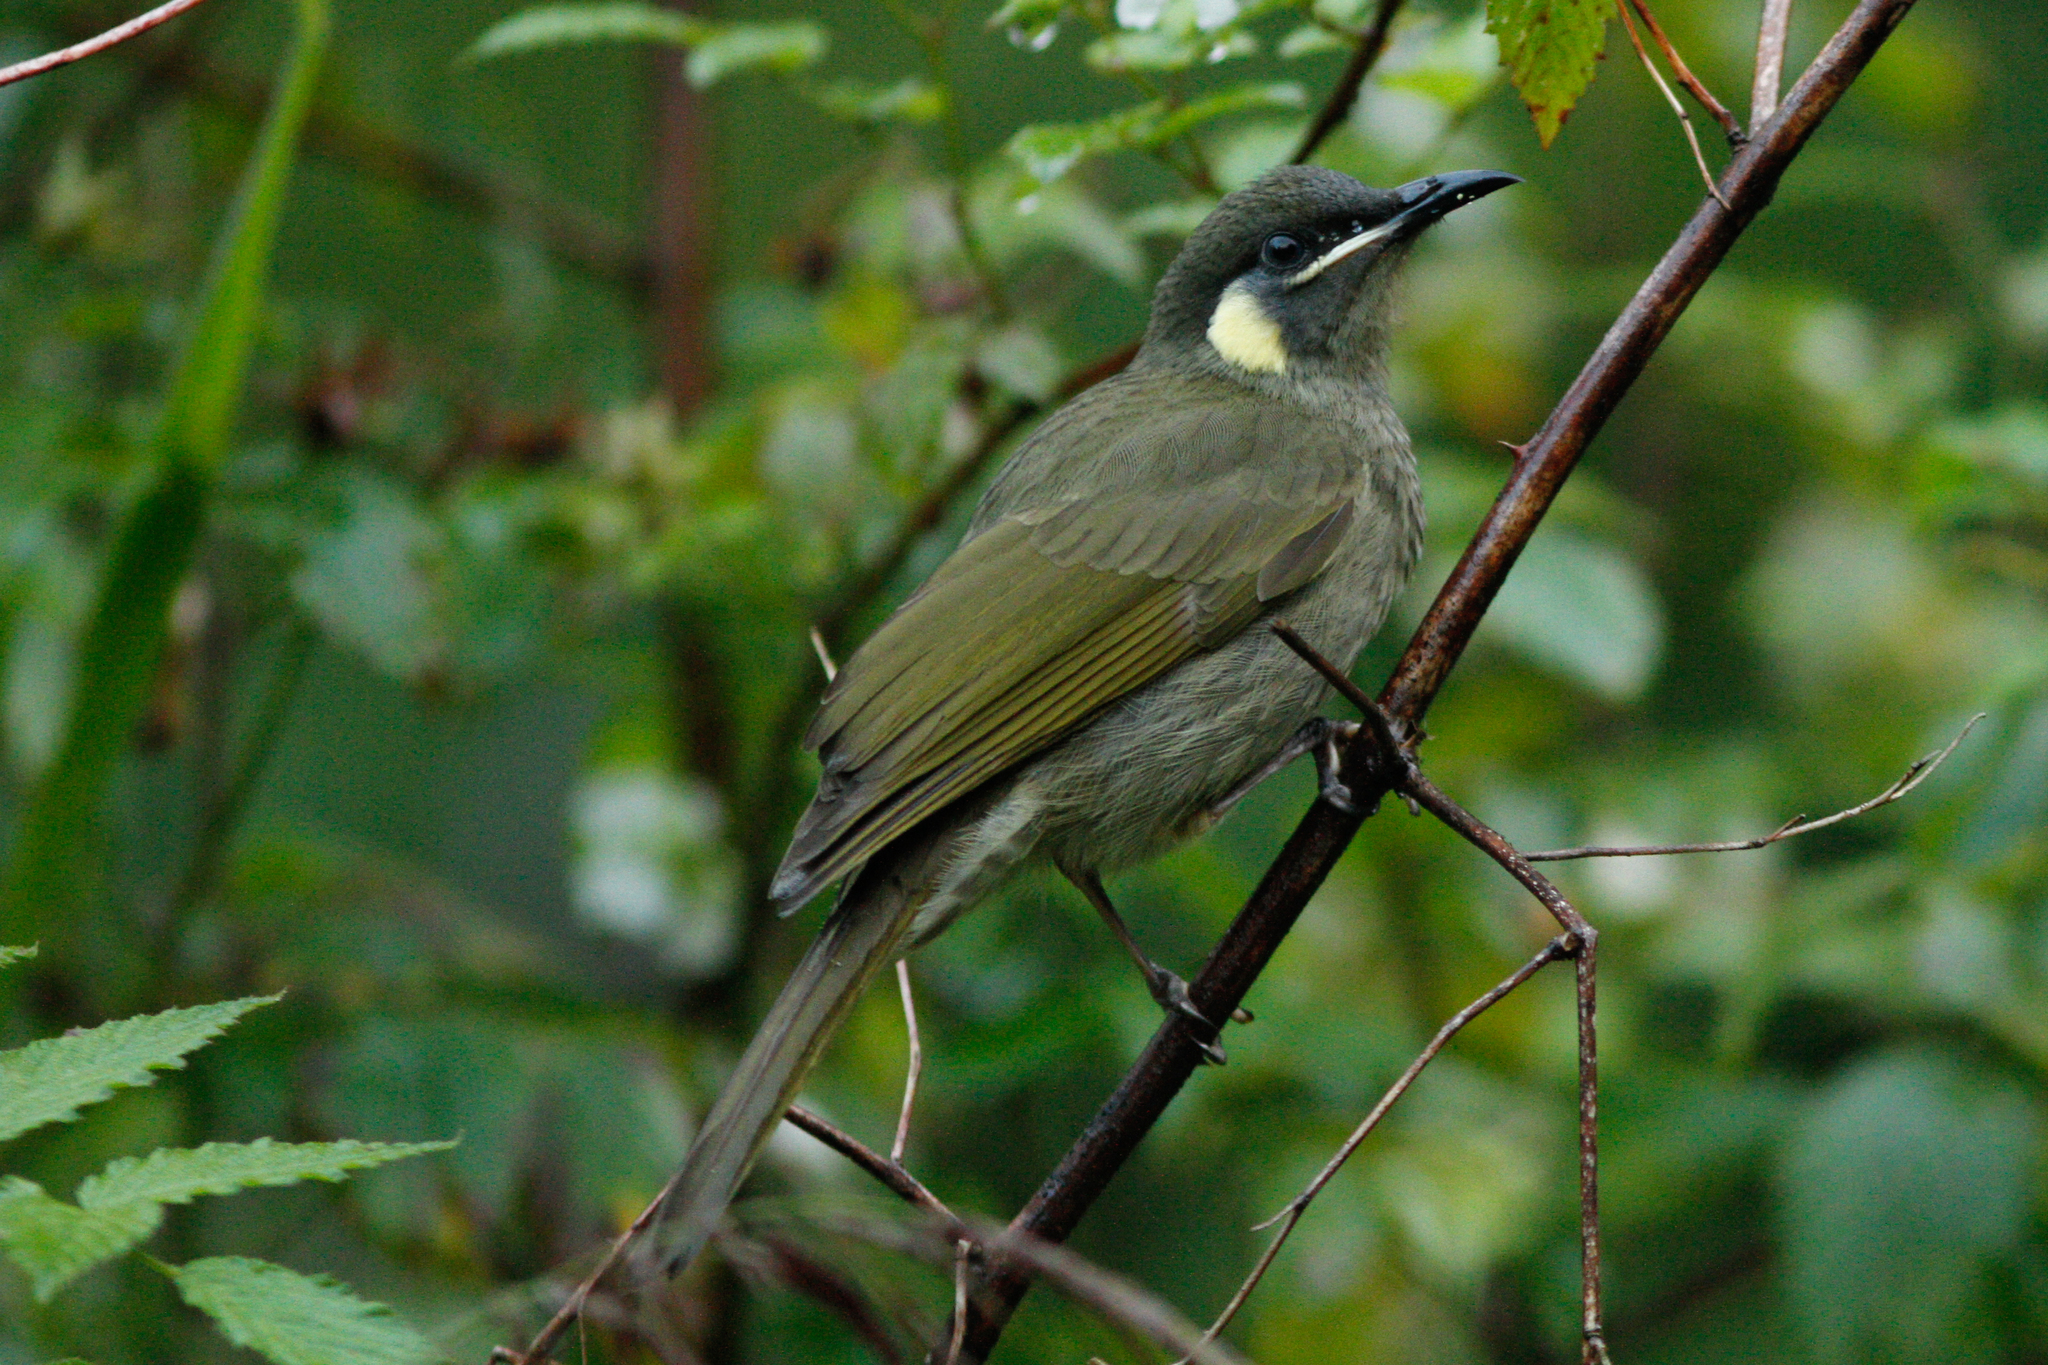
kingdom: Animalia
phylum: Chordata
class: Aves
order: Passeriformes
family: Meliphagidae
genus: Meliphaga
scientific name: Meliphaga lewinii
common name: Lewin's honeyeater
